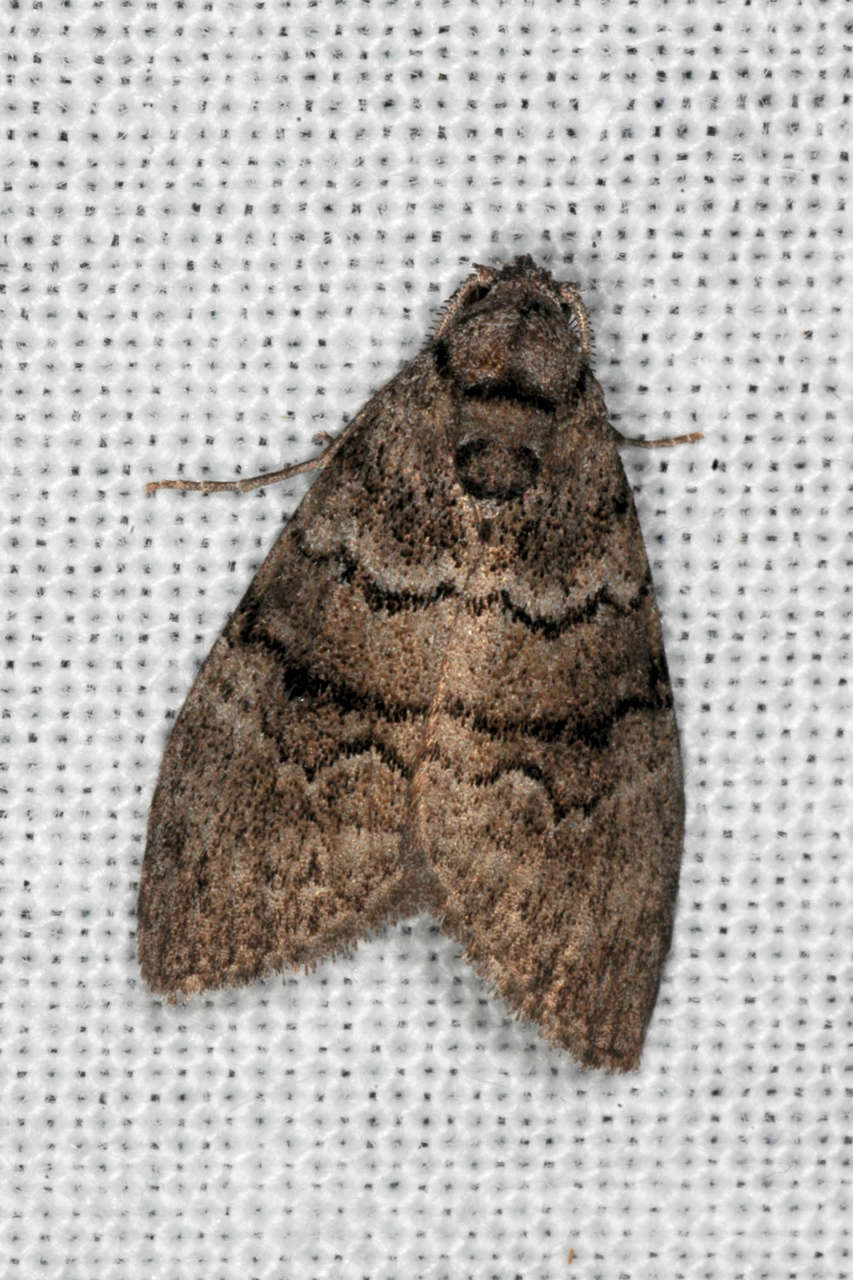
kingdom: Animalia
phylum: Arthropoda
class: Insecta
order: Lepidoptera
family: Nolidae
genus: Uraba
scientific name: Uraba lugens
